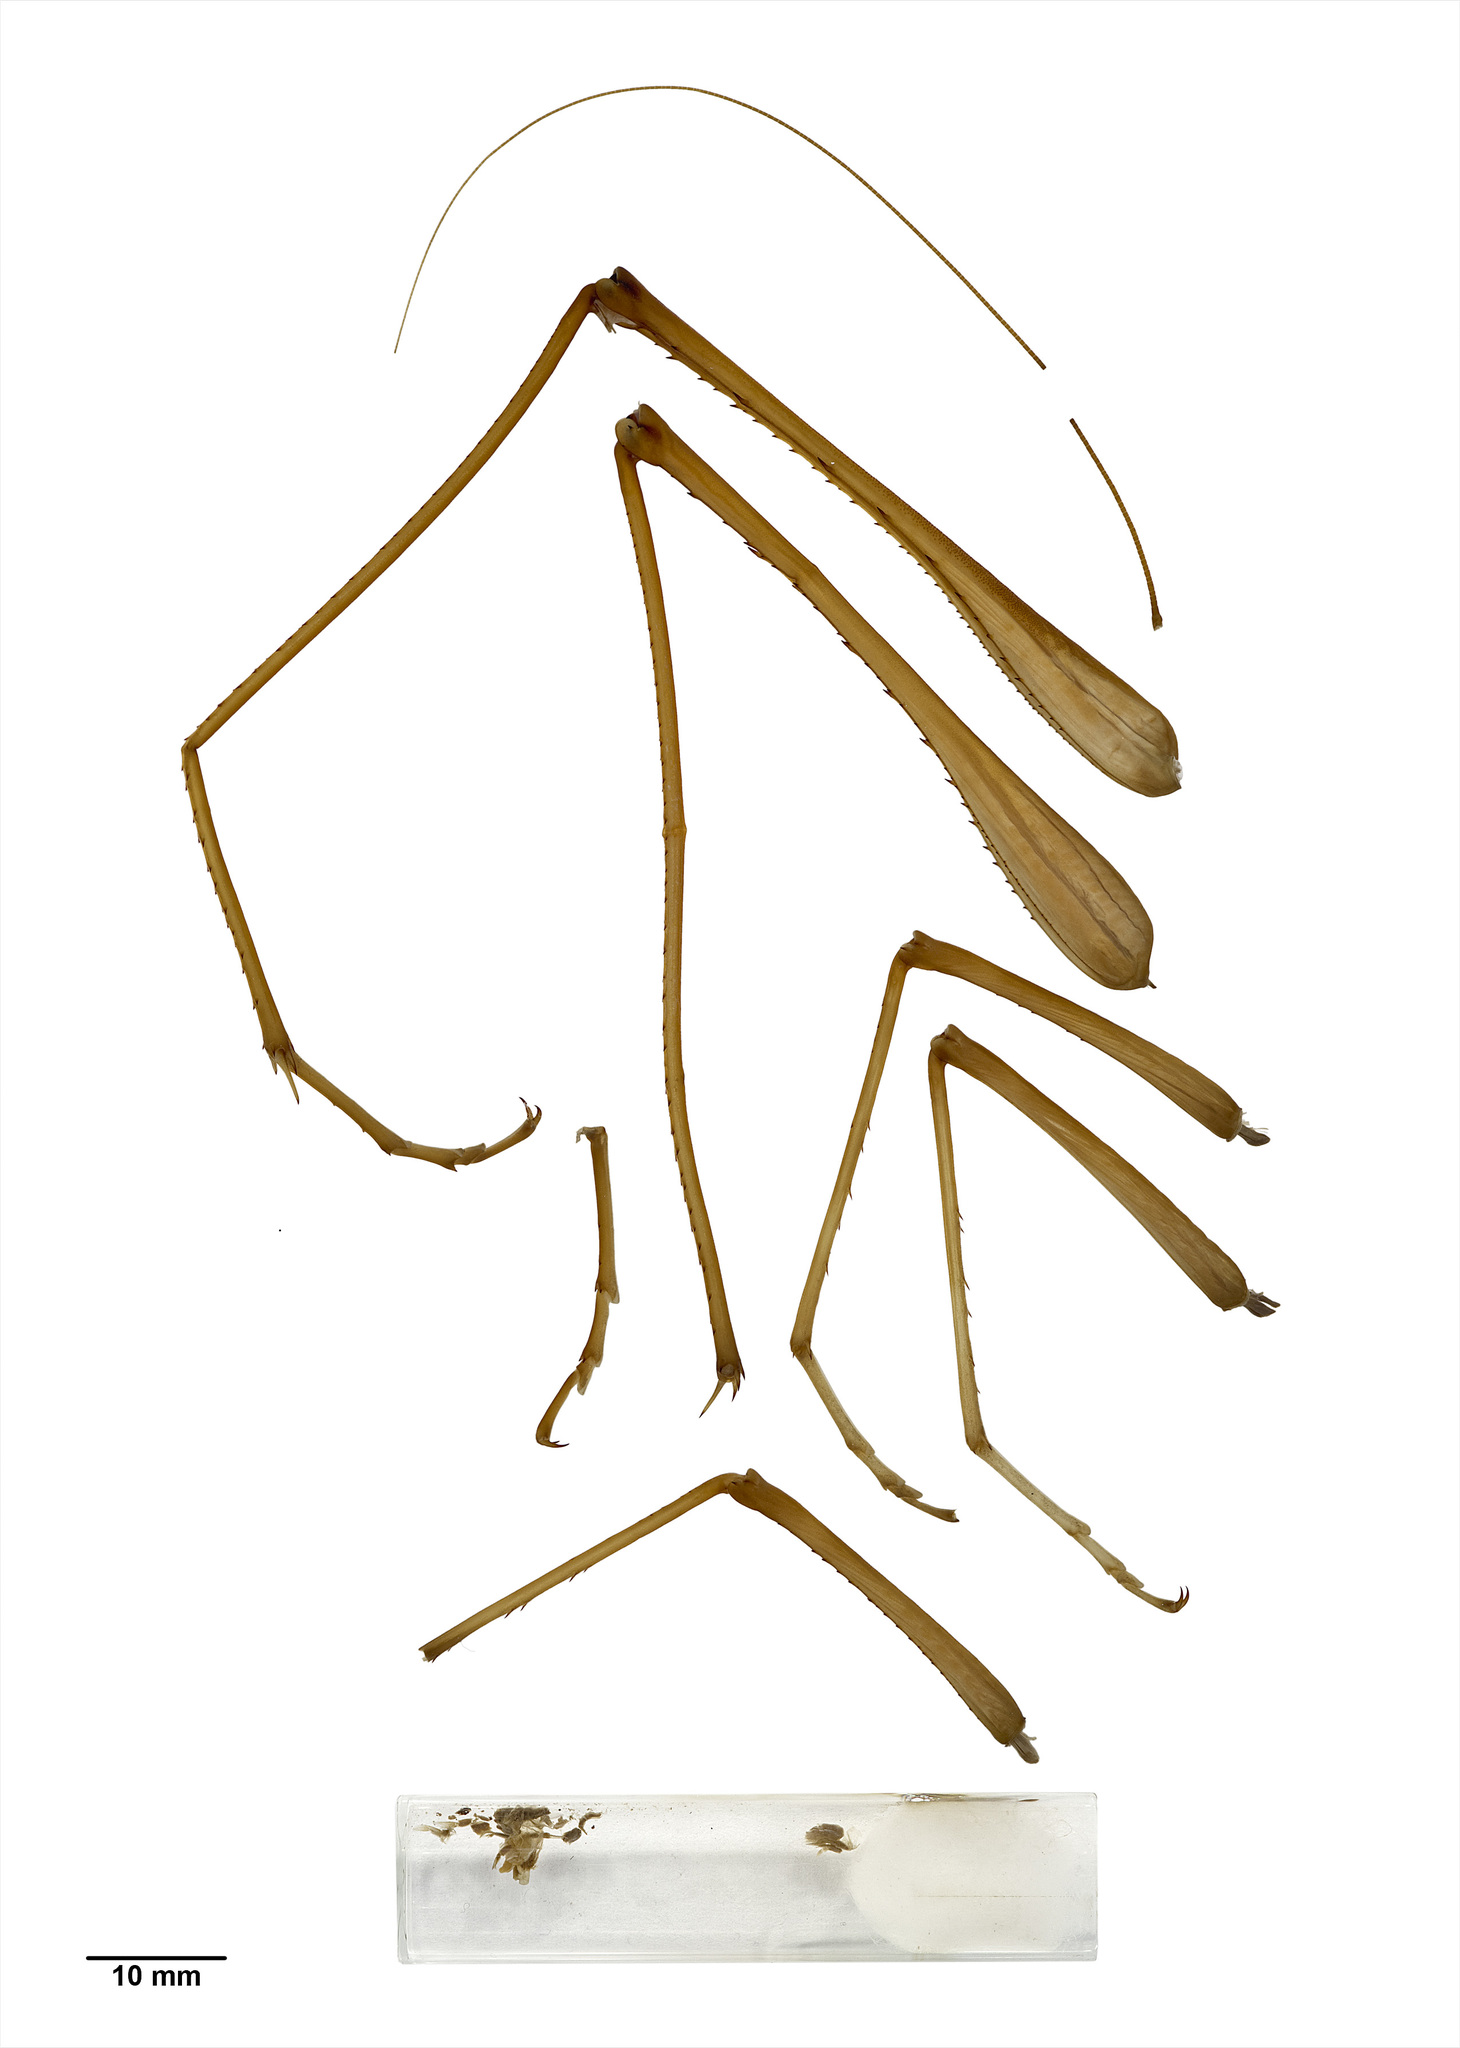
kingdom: Animalia
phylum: Arthropoda
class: Insecta
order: Orthoptera
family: Rhaphidophoridae
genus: Pachyrhamma
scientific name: Pachyrhamma giganteum
